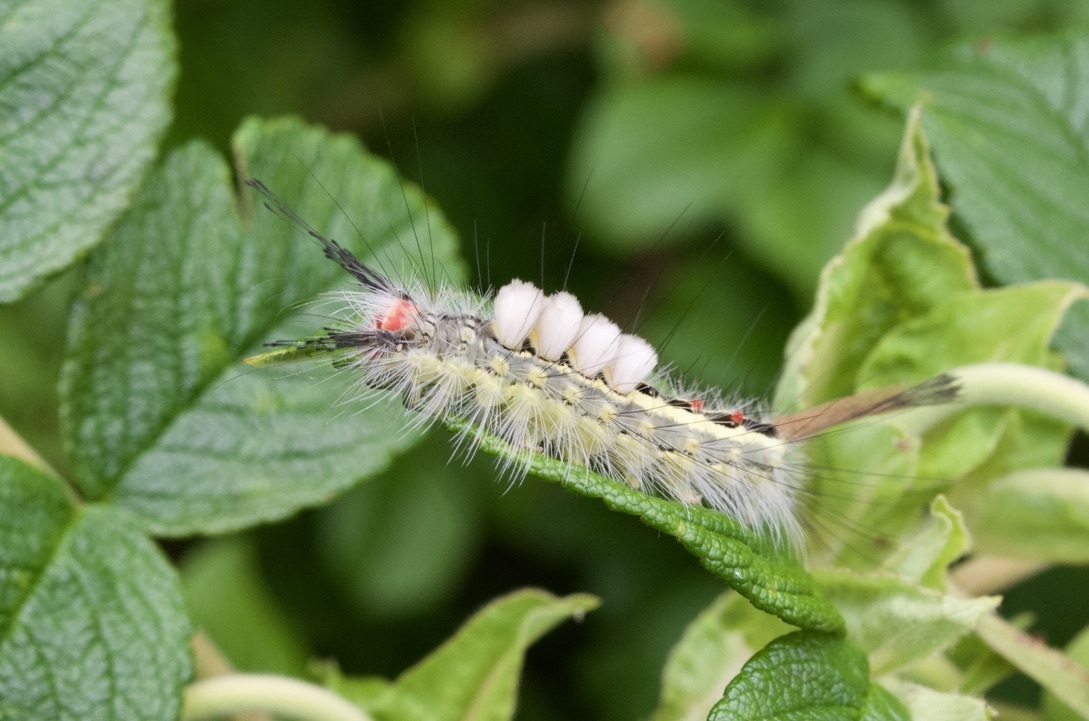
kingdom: Animalia
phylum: Arthropoda
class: Insecta
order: Lepidoptera
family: Erebidae
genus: Orgyia
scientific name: Orgyia leucostigma
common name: White-marked tussock moth
